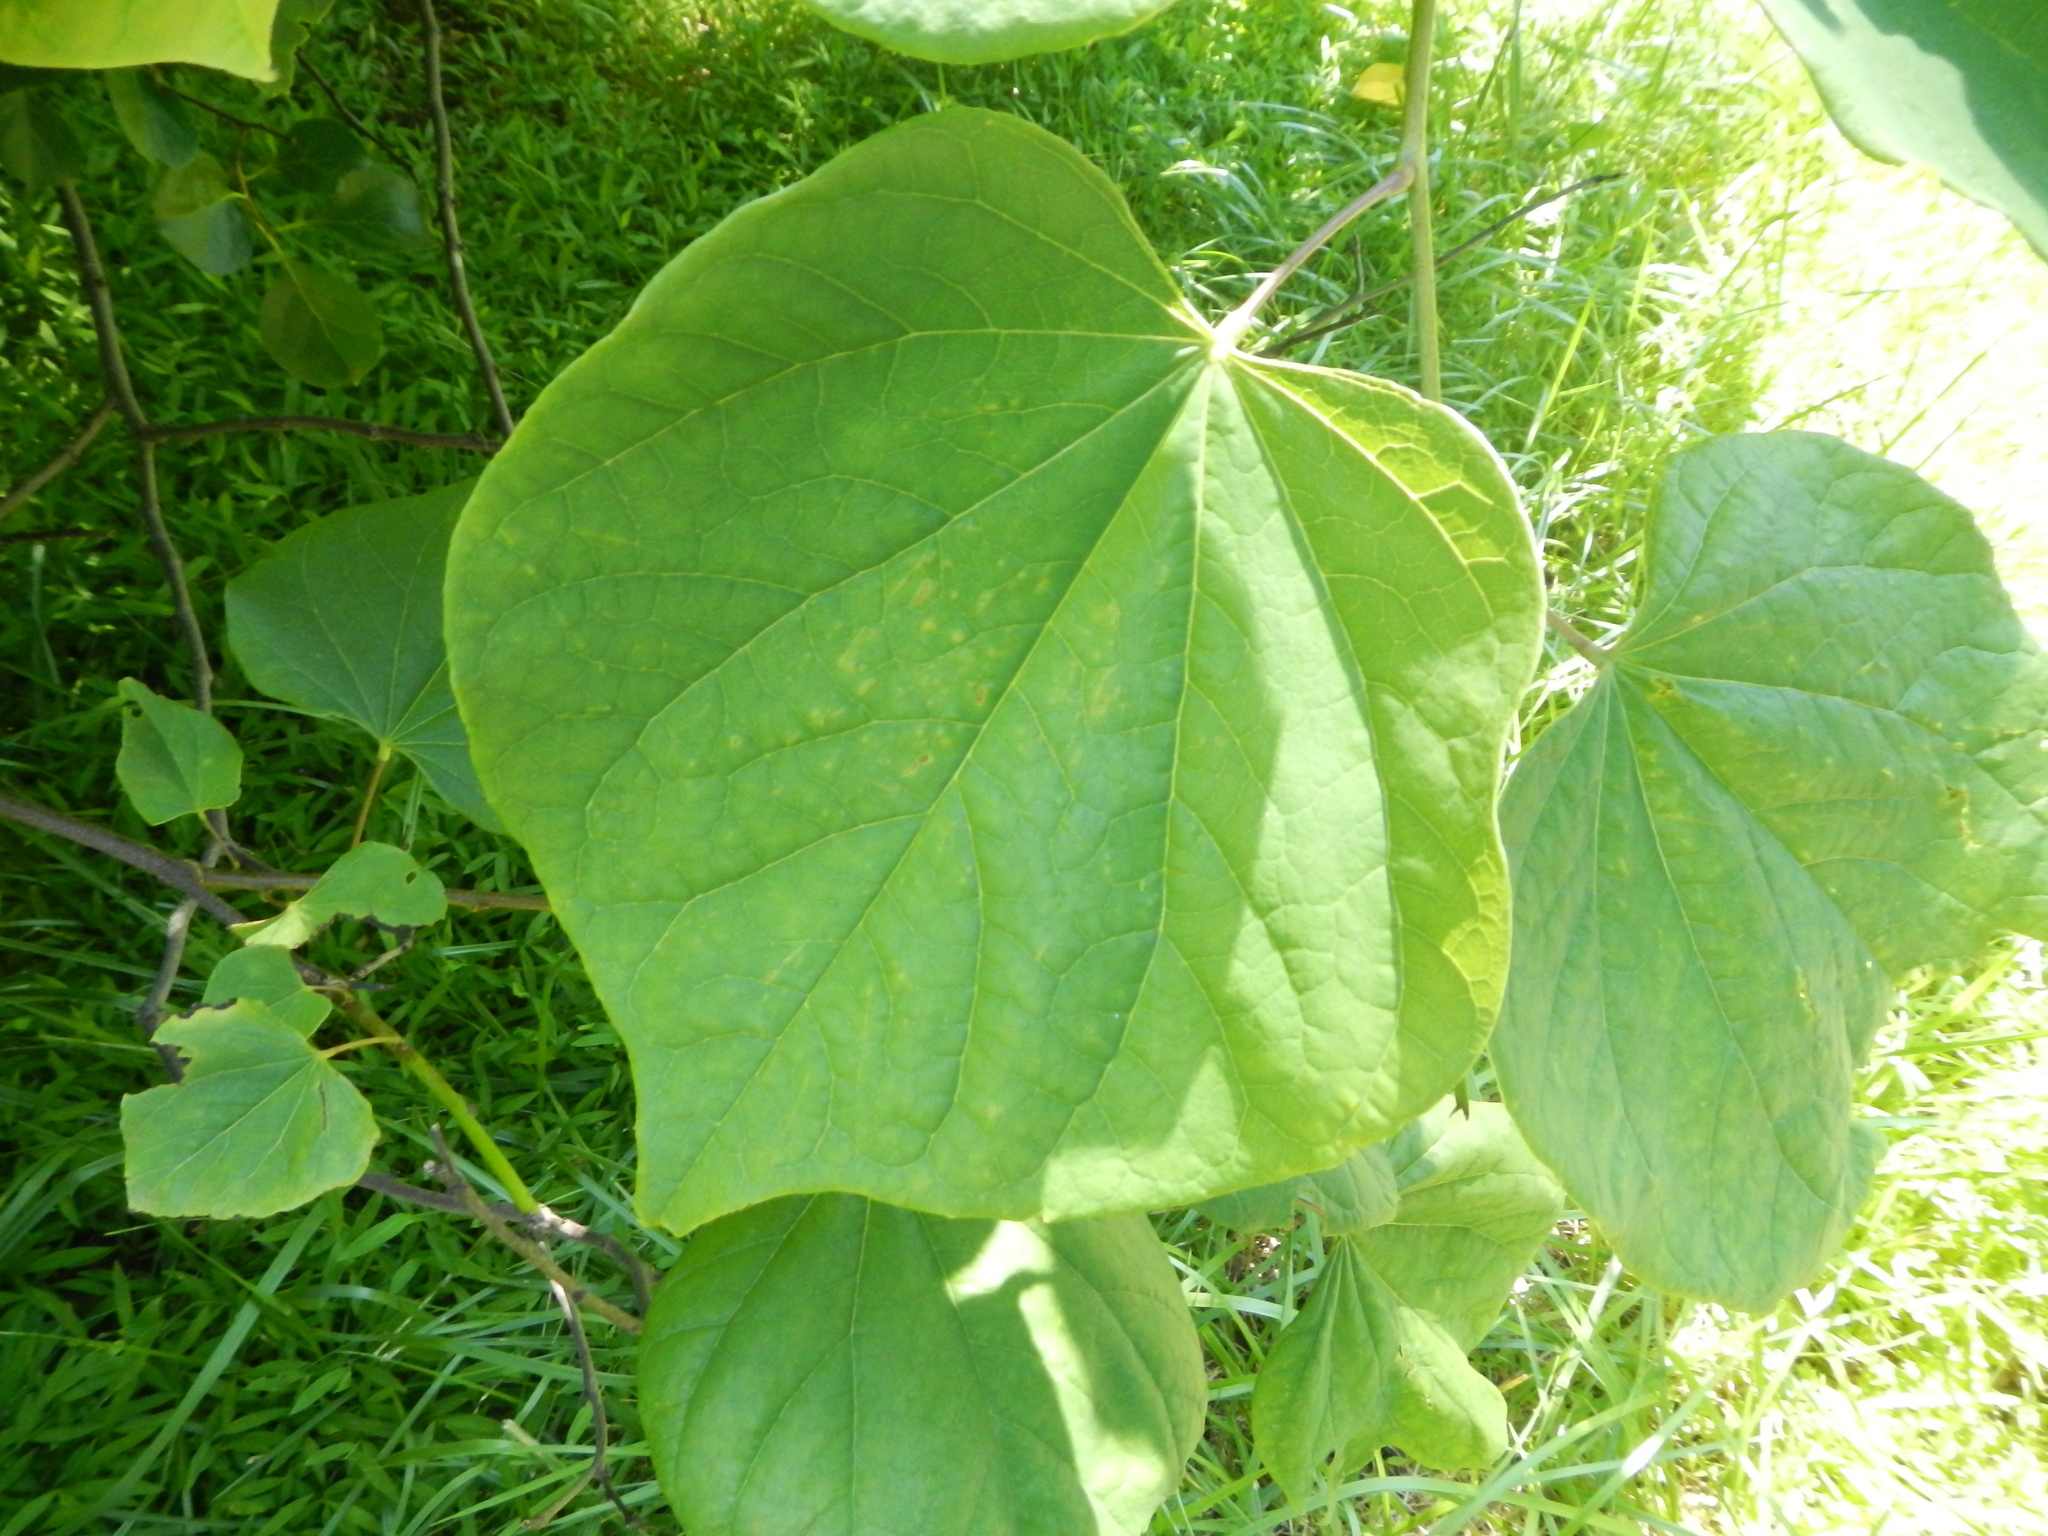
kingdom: Plantae
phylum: Tracheophyta
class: Magnoliopsida
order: Fabales
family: Fabaceae
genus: Cercis
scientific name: Cercis canadensis
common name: Eastern redbud
